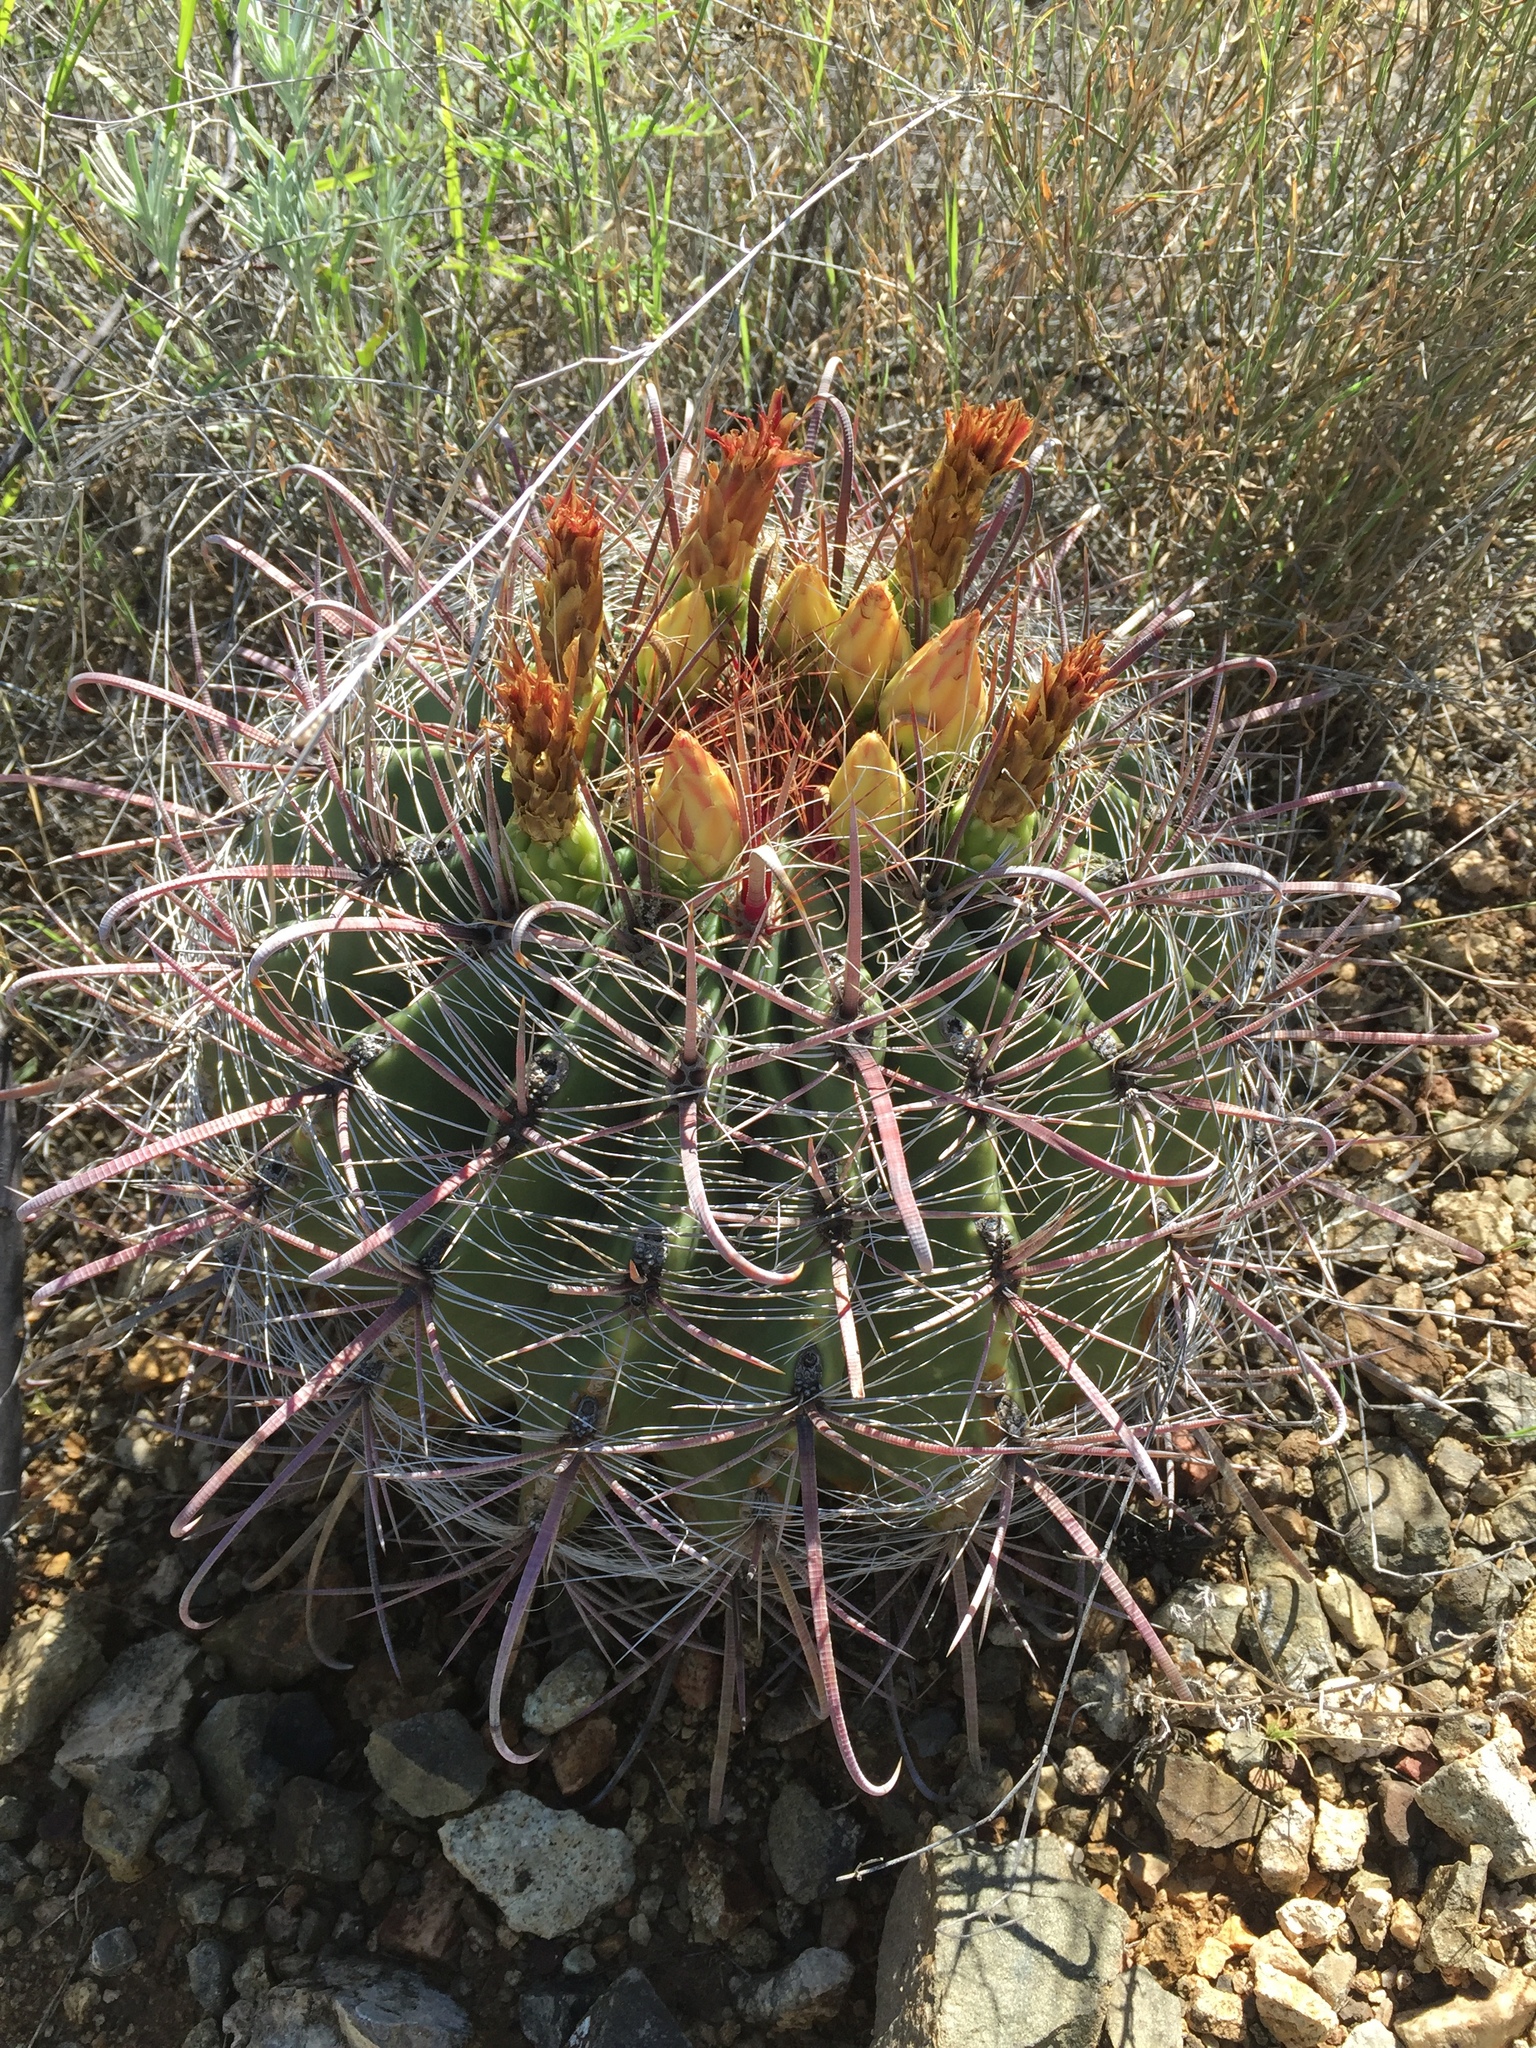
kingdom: Plantae
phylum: Tracheophyta
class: Magnoliopsida
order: Caryophyllales
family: Cactaceae
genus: Ferocactus
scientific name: Ferocactus wislizeni
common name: Candy barrel cactus
